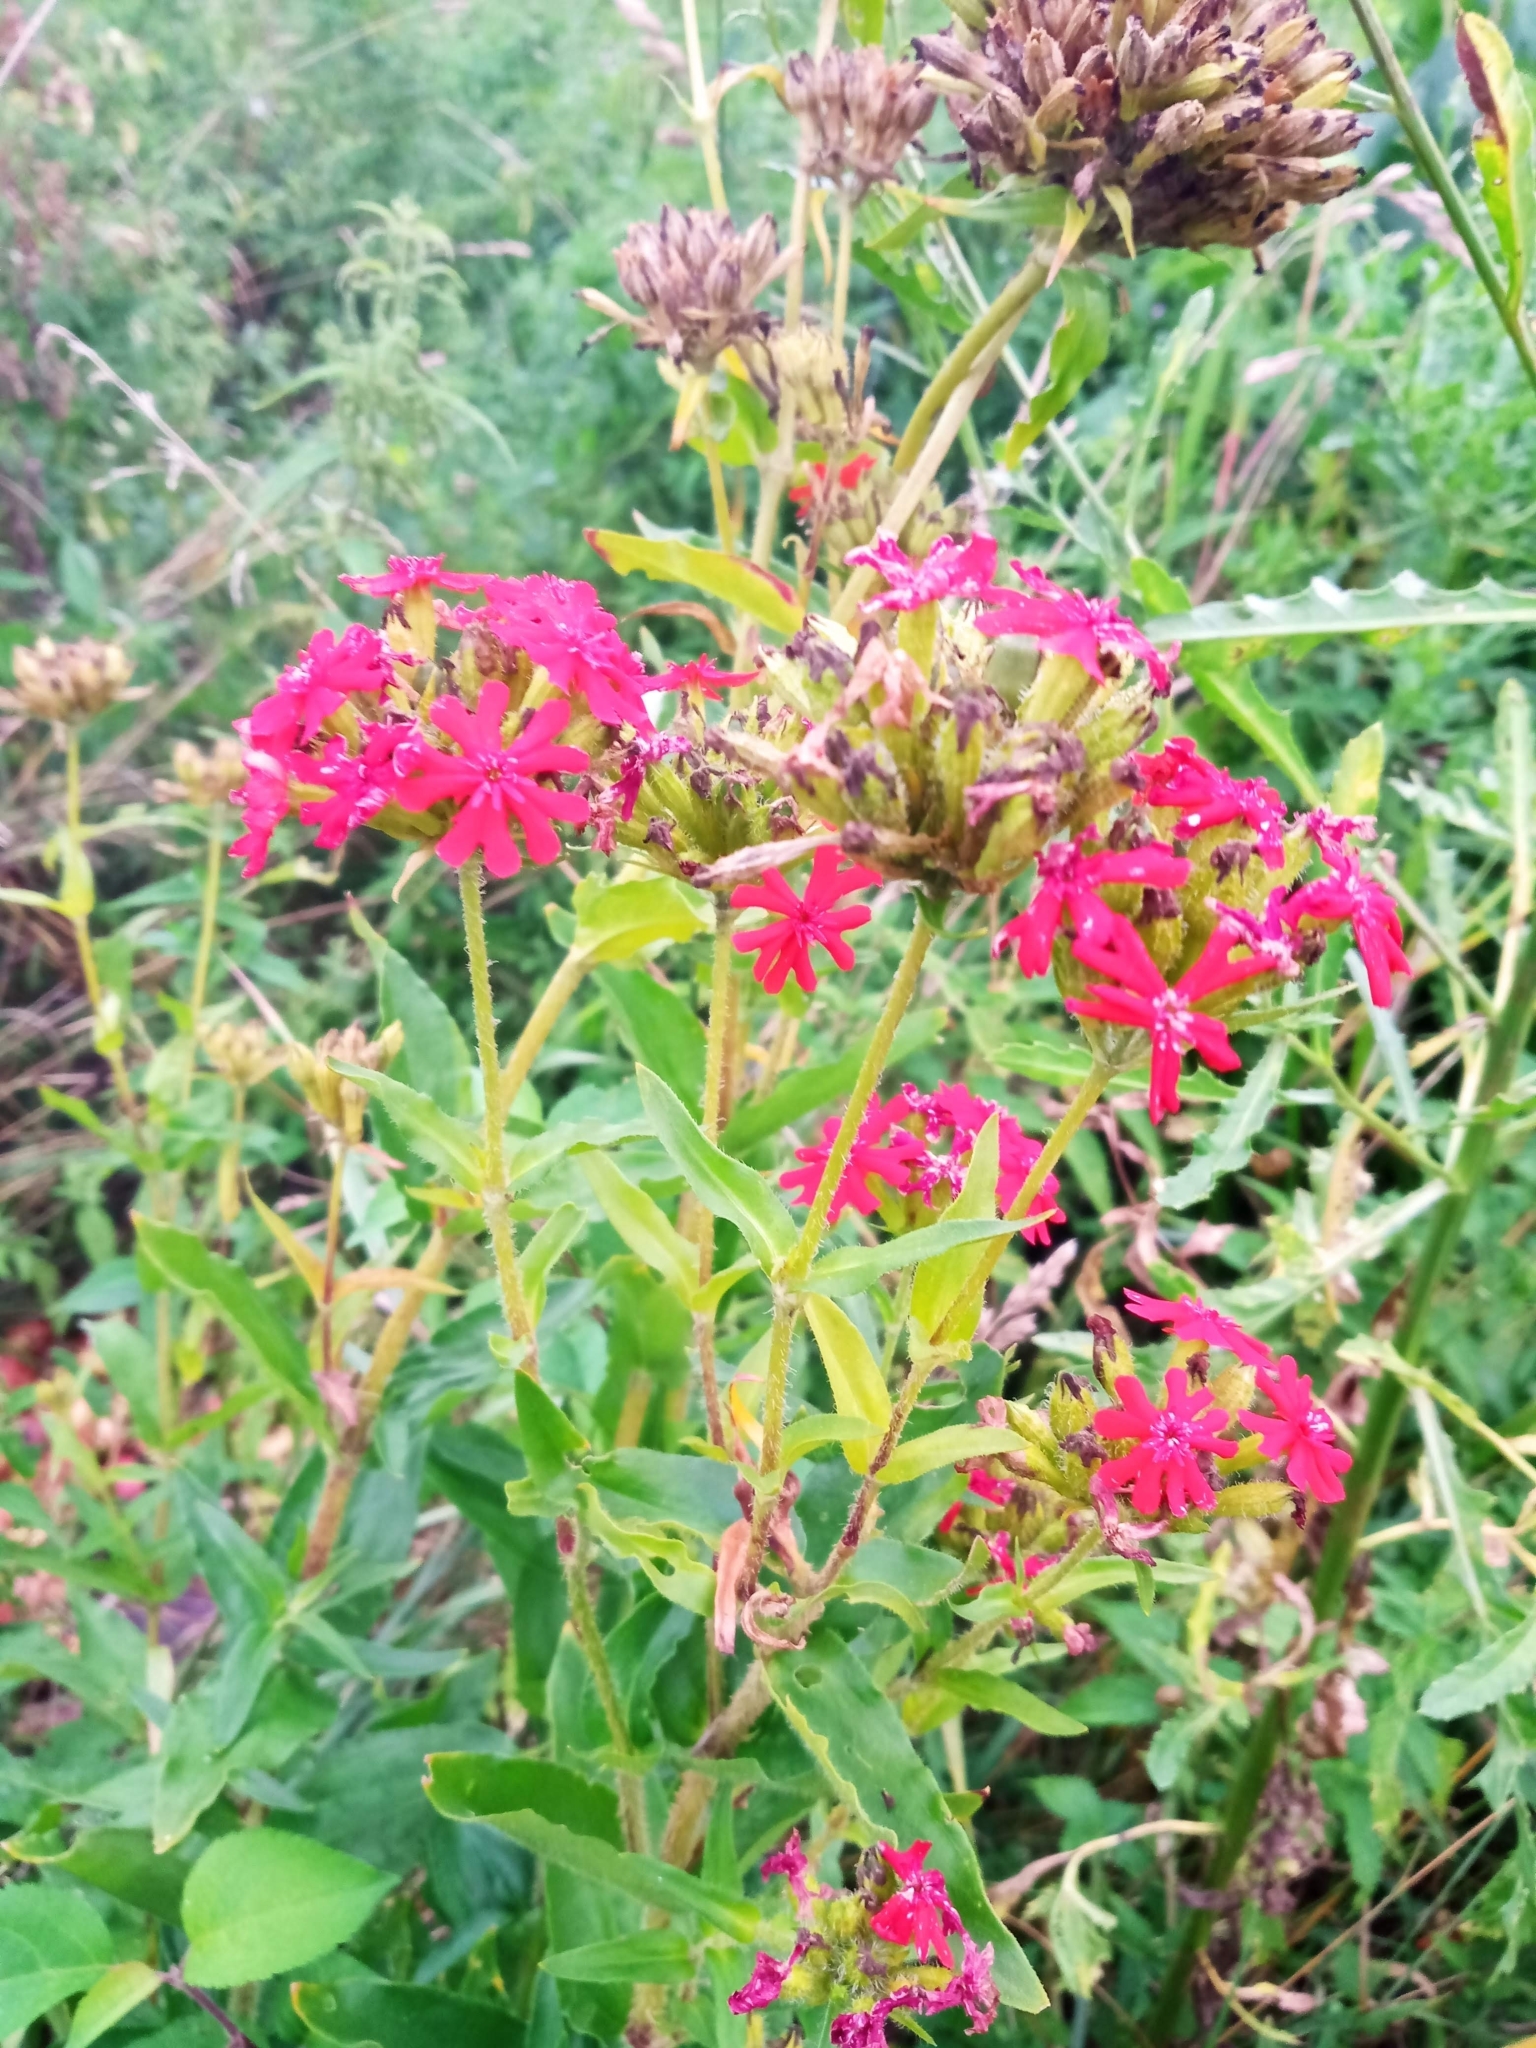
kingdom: Plantae
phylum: Tracheophyta
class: Magnoliopsida
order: Caryophyllales
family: Caryophyllaceae
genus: Silene
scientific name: Silene chalcedonica
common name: Maltese-cross
